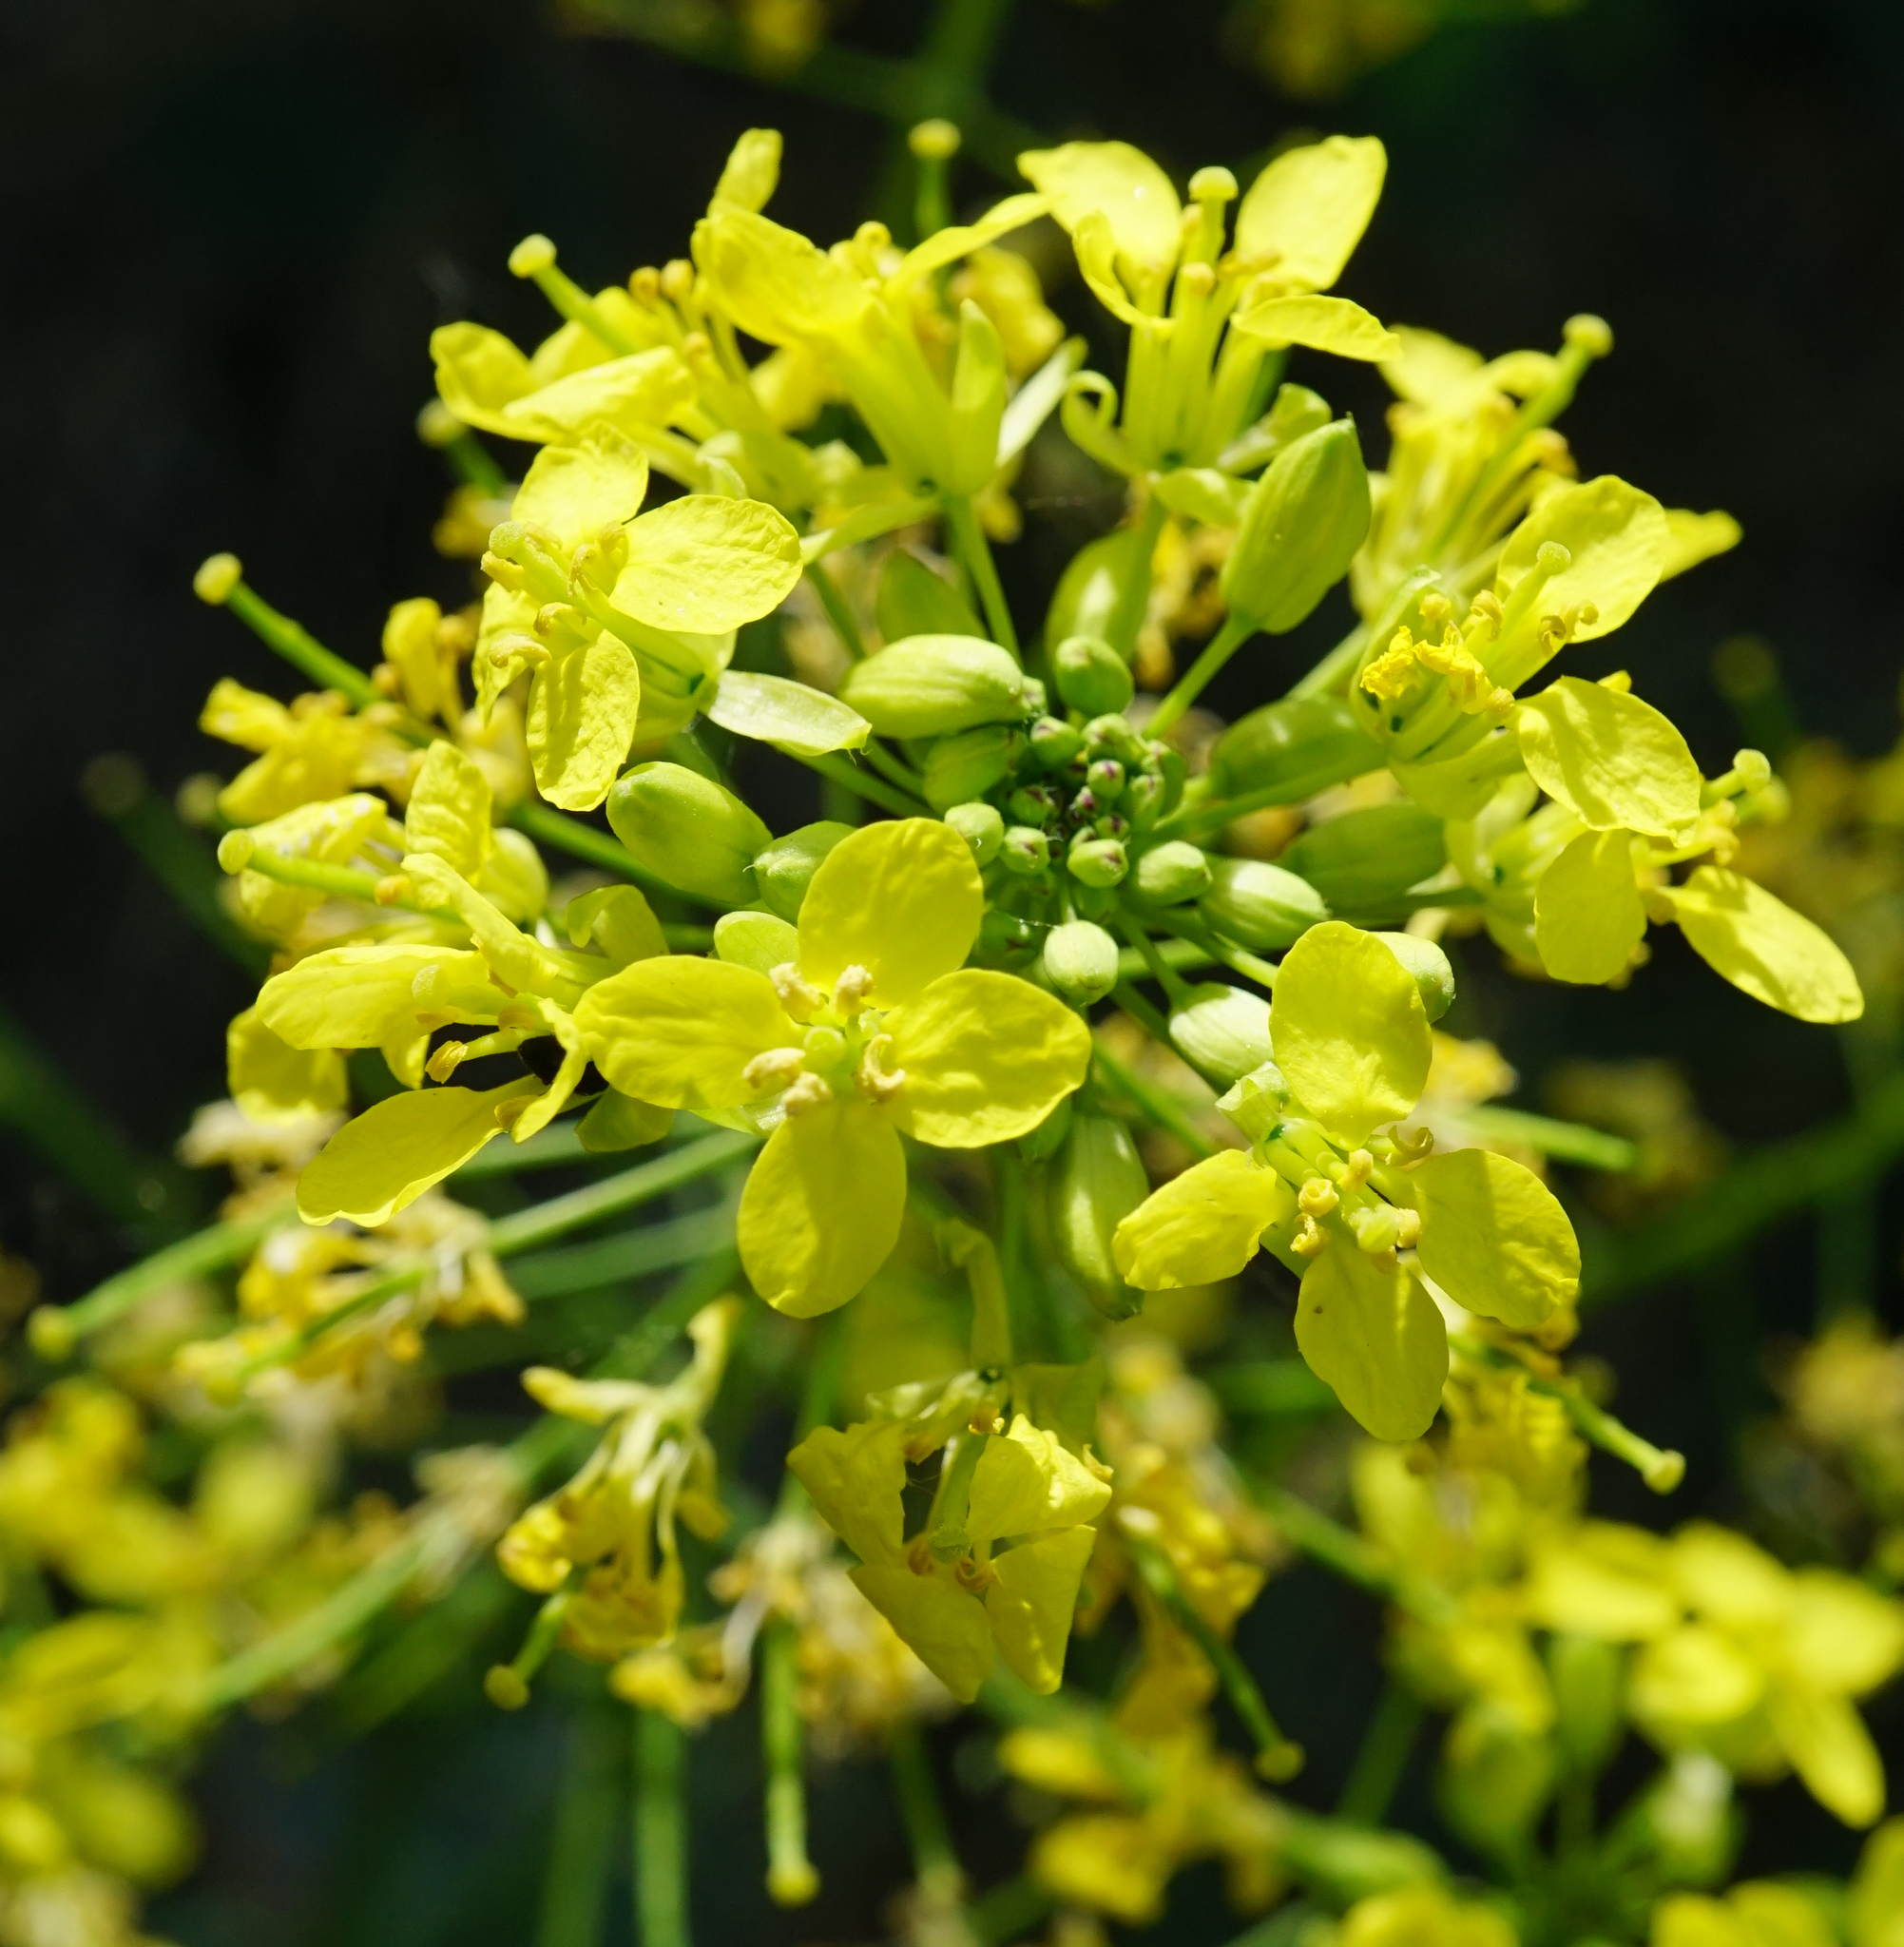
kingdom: Plantae
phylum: Tracheophyta
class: Magnoliopsida
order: Brassicales
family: Brassicaceae
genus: Erucastrum
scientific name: Erucastrum nasturtiifolium
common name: Watercress-leaf rocket
